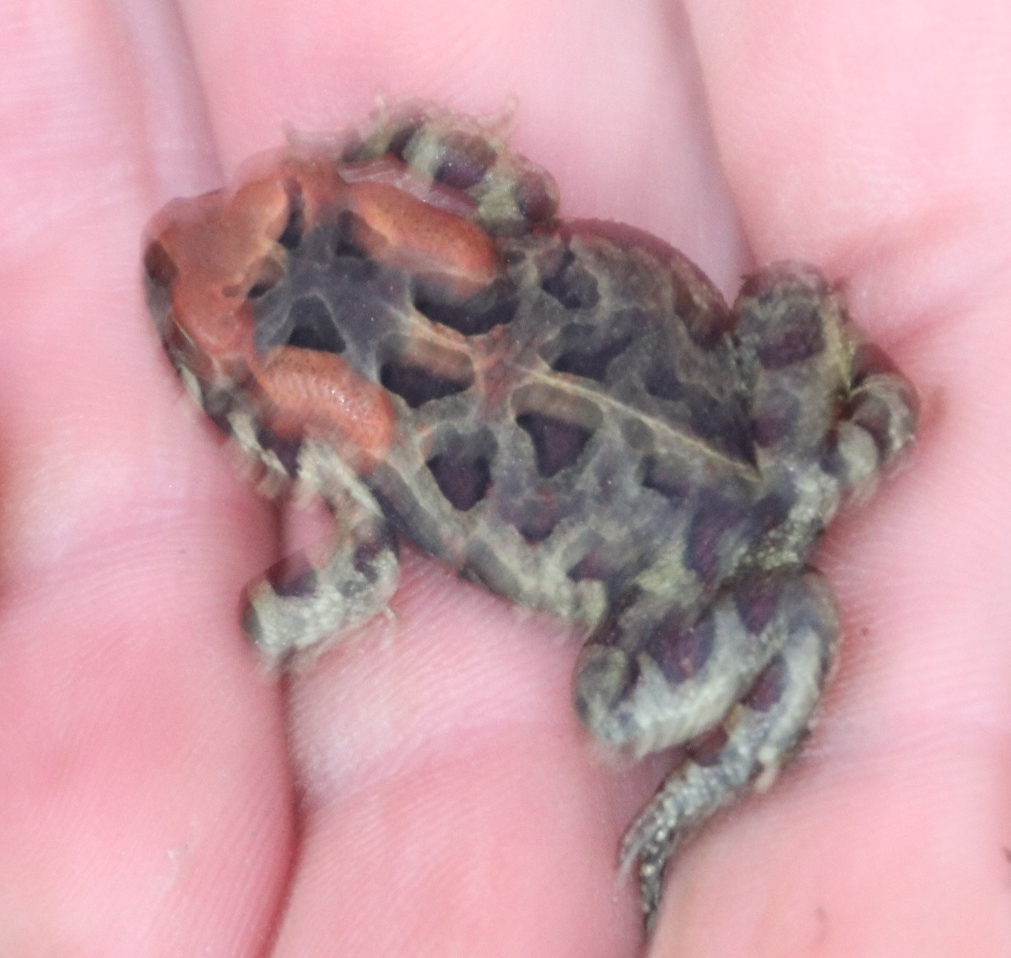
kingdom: Animalia
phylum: Chordata
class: Amphibia
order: Anura
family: Bufonidae
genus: Sclerophrys
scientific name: Sclerophrys pantherina
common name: Panther toad
